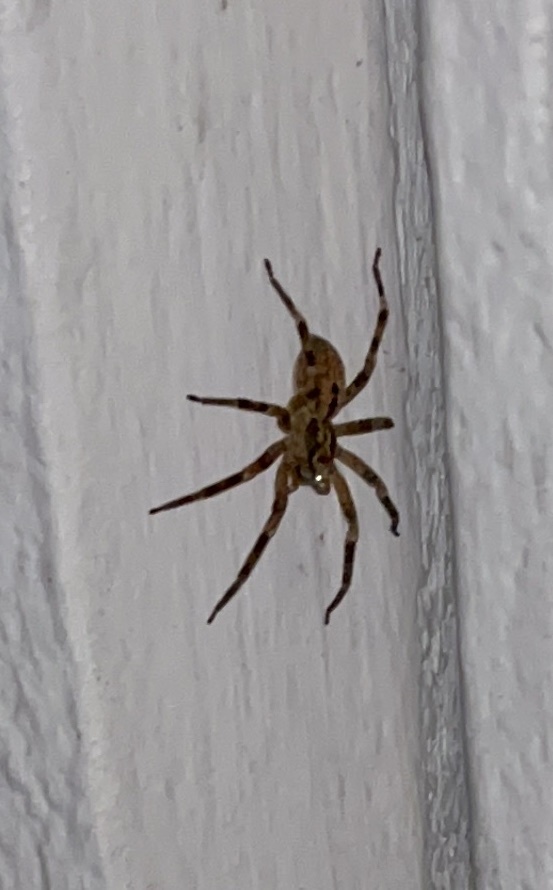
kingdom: Animalia
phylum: Arthropoda
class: Arachnida
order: Araneae
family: Zoropsidae
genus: Zoropsis
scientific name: Zoropsis spinimana
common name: Zoropsid spider
